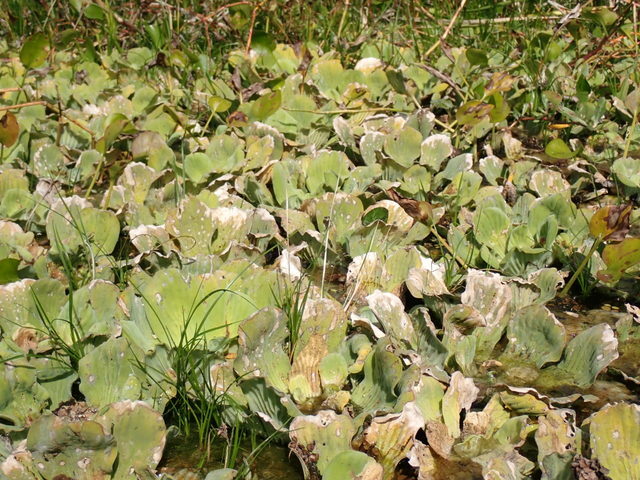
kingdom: Plantae
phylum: Tracheophyta
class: Liliopsida
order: Alismatales
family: Araceae
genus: Pistia
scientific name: Pistia stratiotes
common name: Water lettuce
